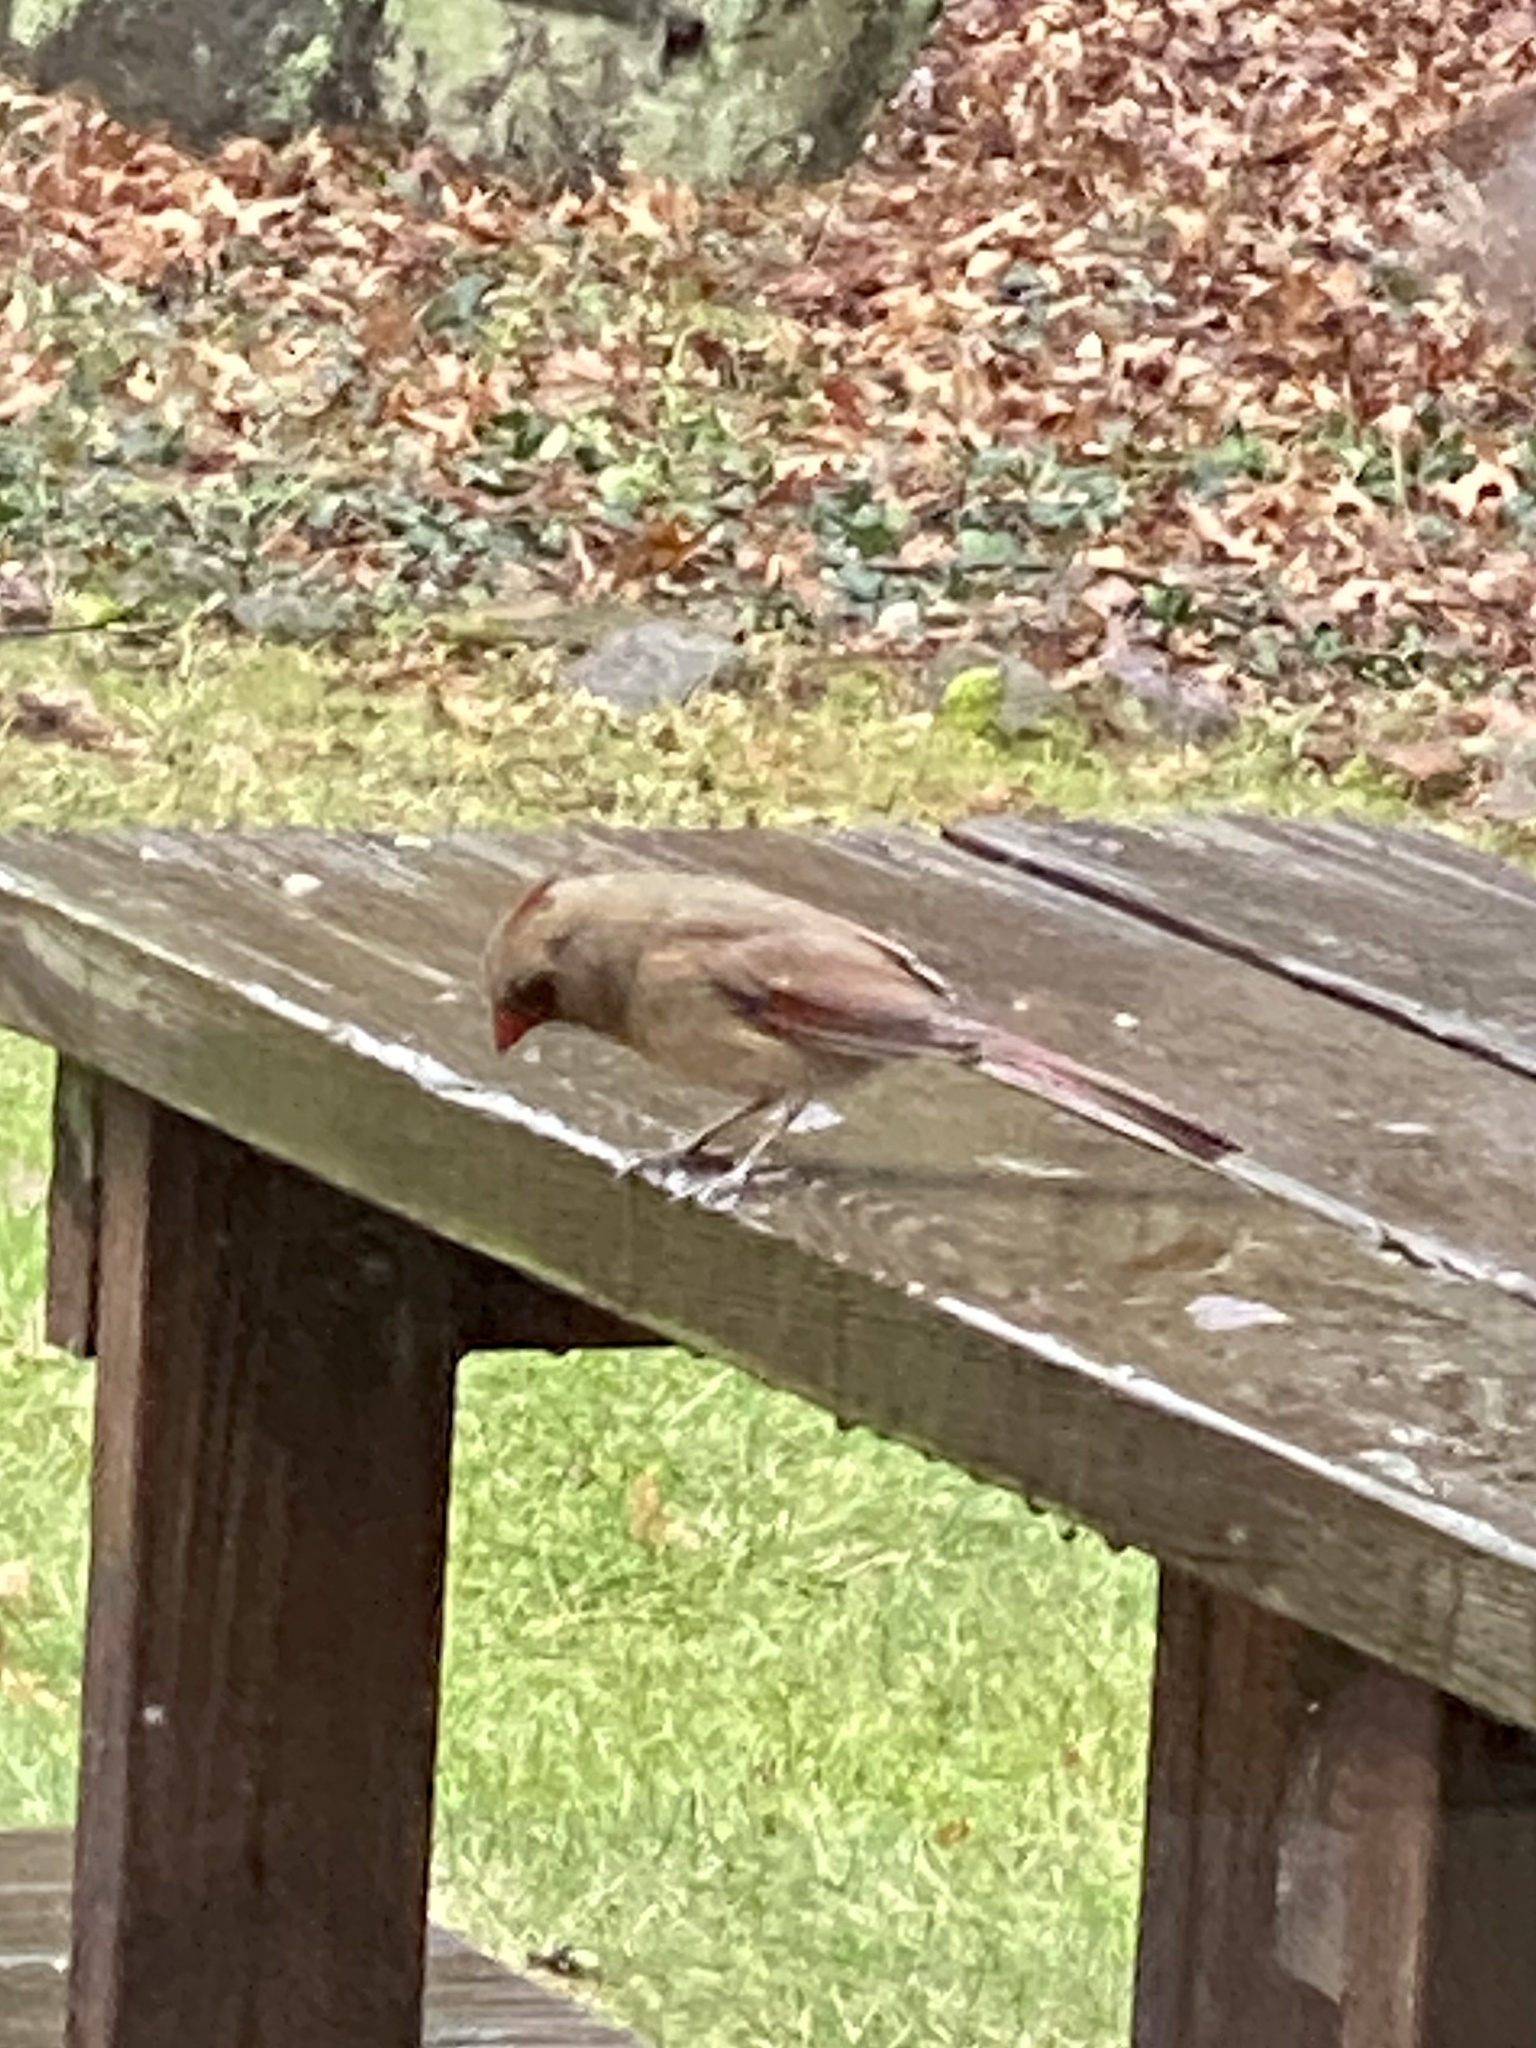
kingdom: Animalia
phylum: Chordata
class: Aves
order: Passeriformes
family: Cardinalidae
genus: Cardinalis
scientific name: Cardinalis cardinalis
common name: Northern cardinal
